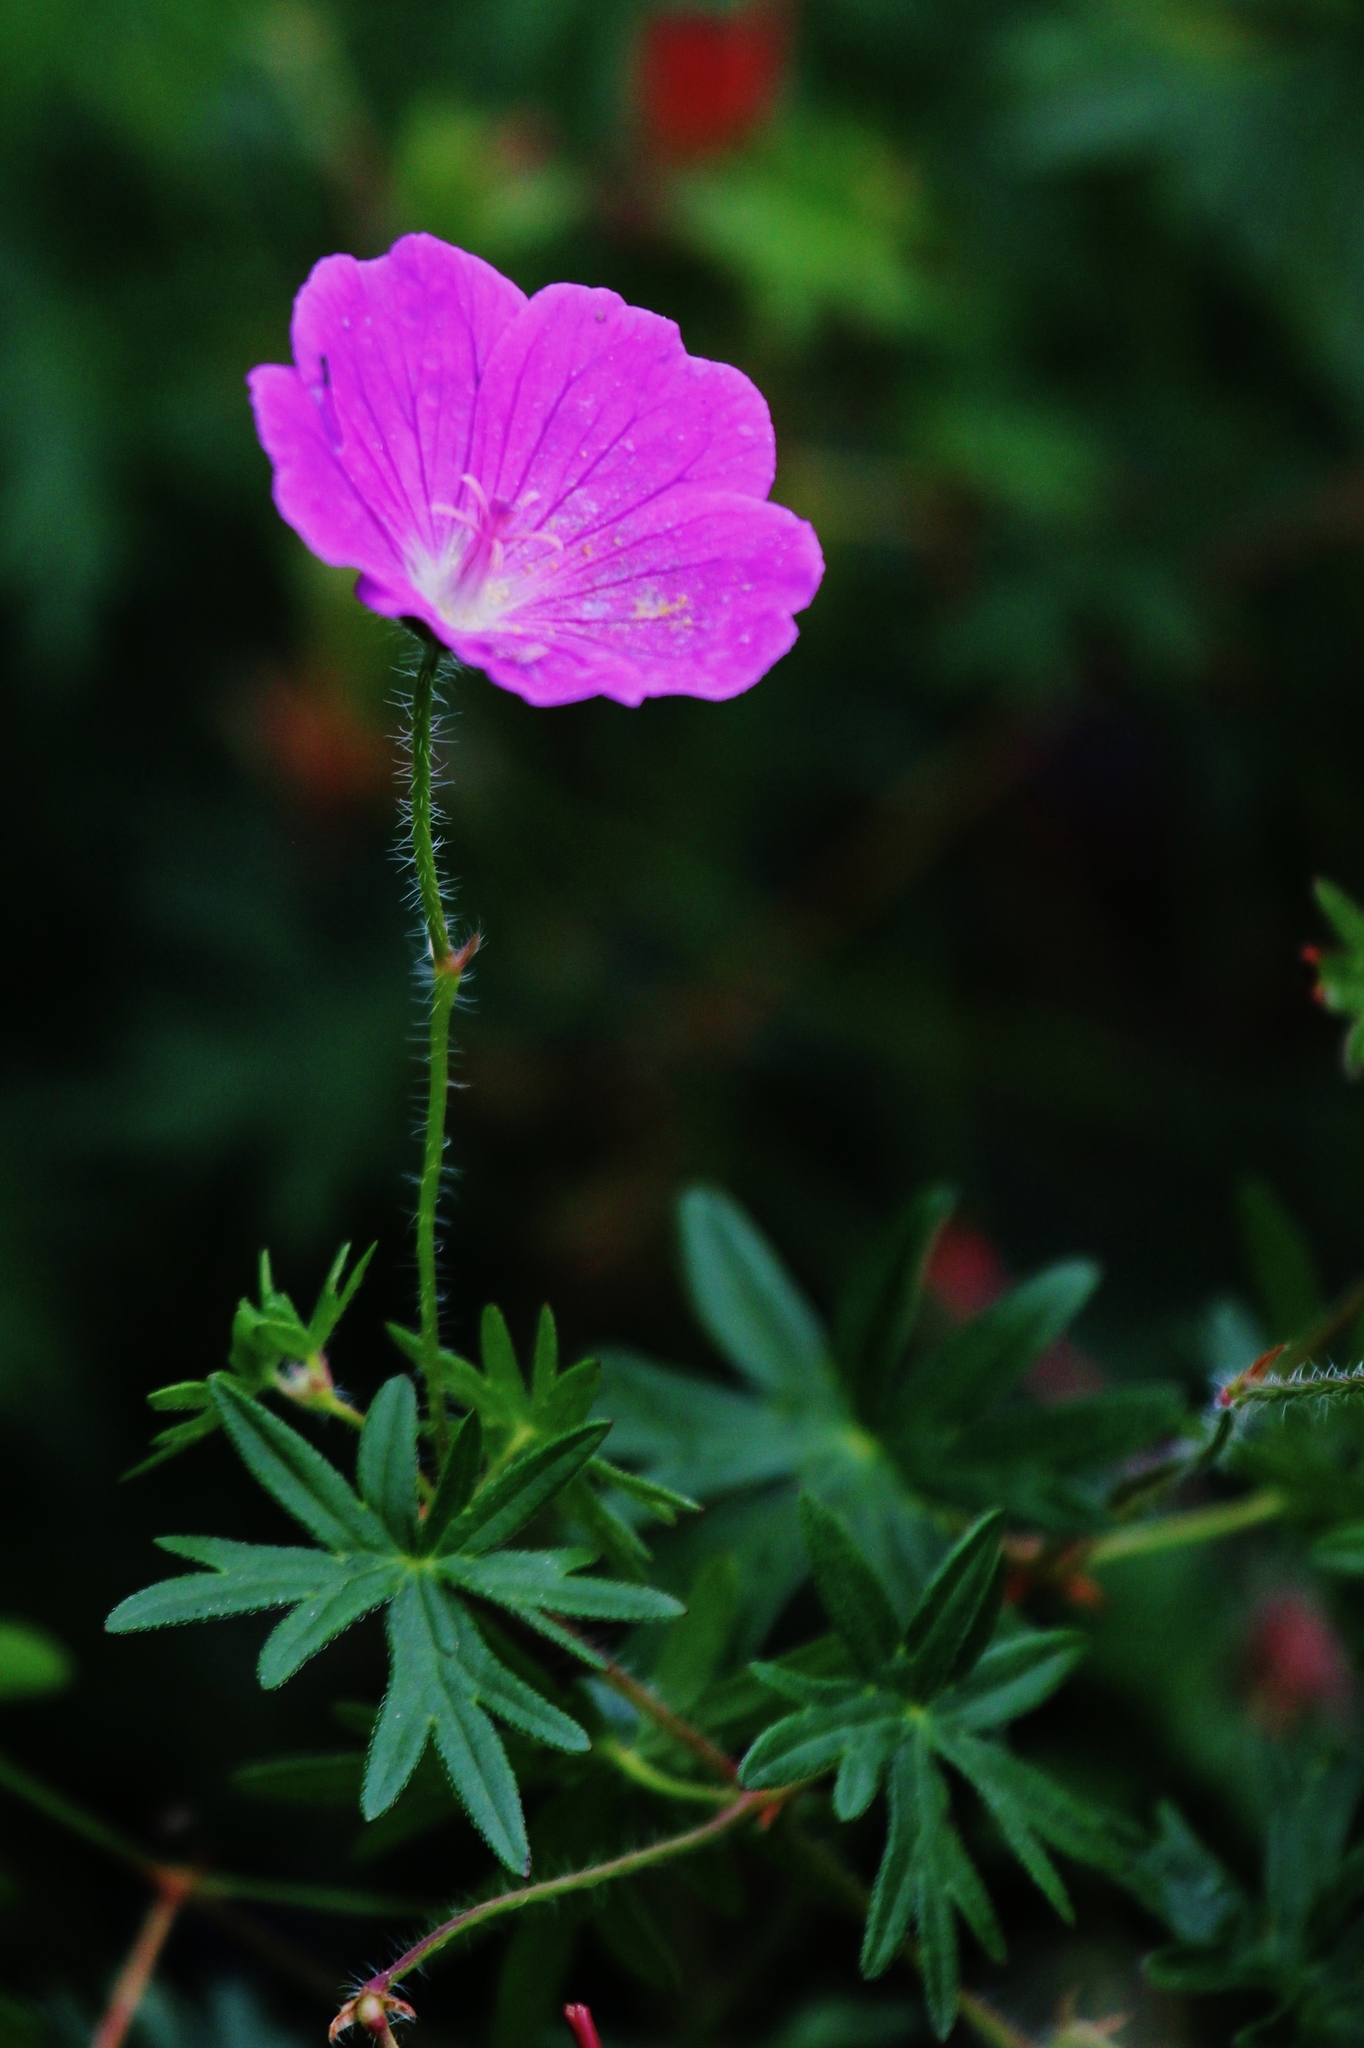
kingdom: Plantae
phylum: Tracheophyta
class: Magnoliopsida
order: Geraniales
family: Geraniaceae
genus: Geranium
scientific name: Geranium sanguineum
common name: Bloody crane's-bill
